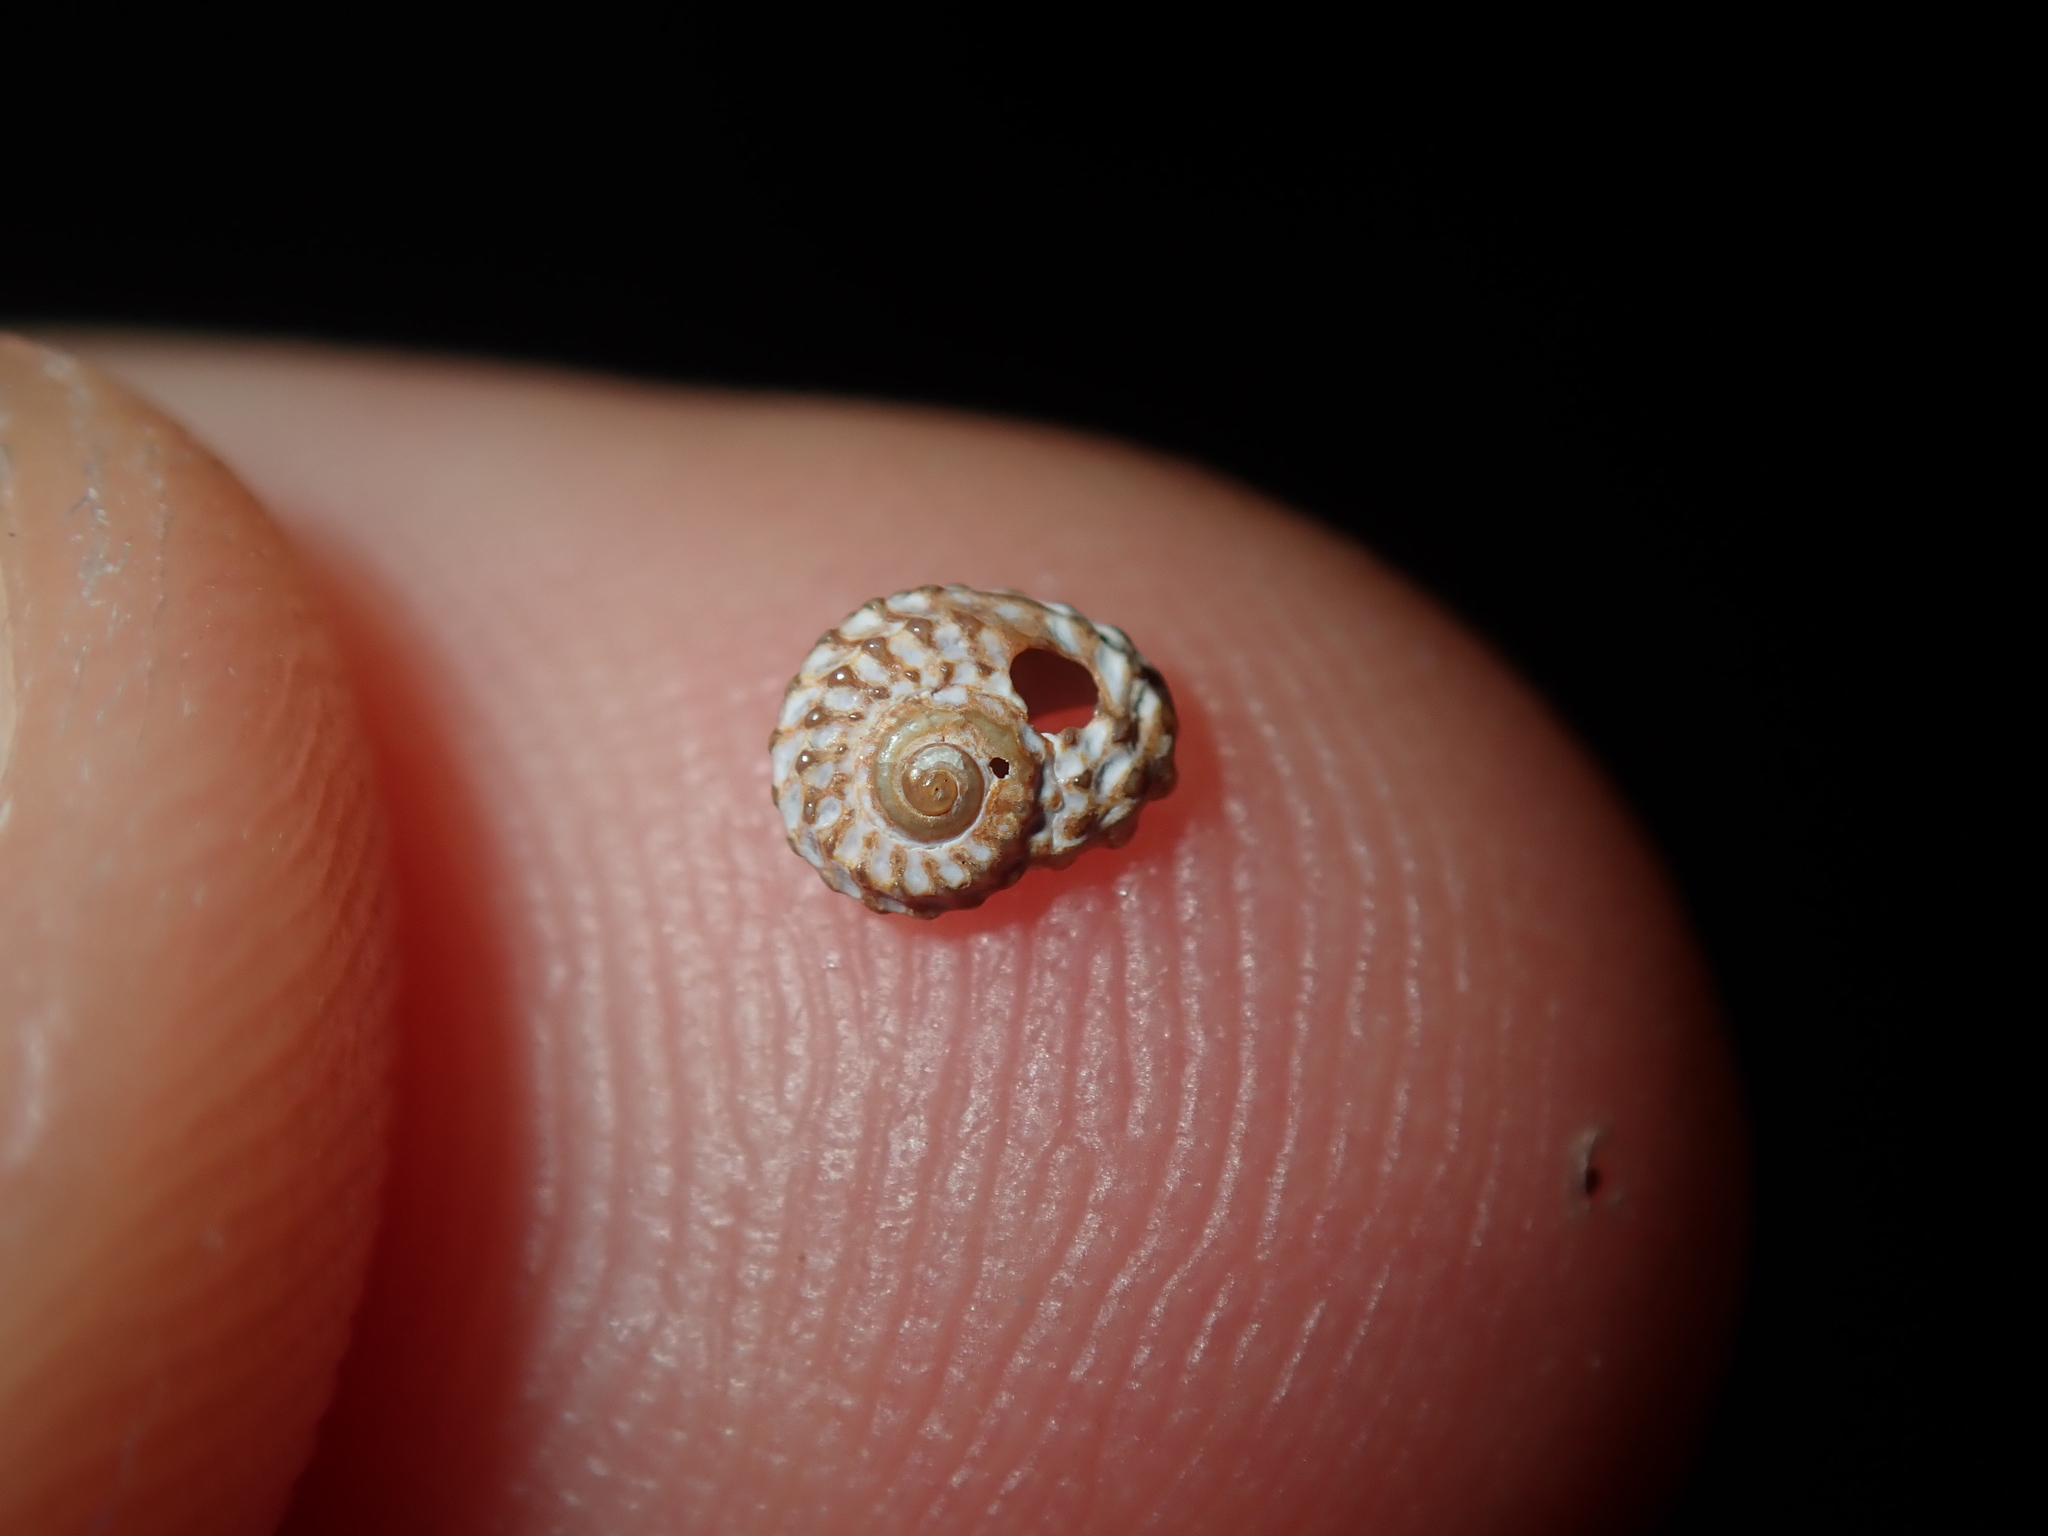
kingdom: Animalia
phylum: Mollusca
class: Gastropoda
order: Littorinimorpha
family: Tornidae
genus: Pseudoliotia
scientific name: Pseudoliotia micans
